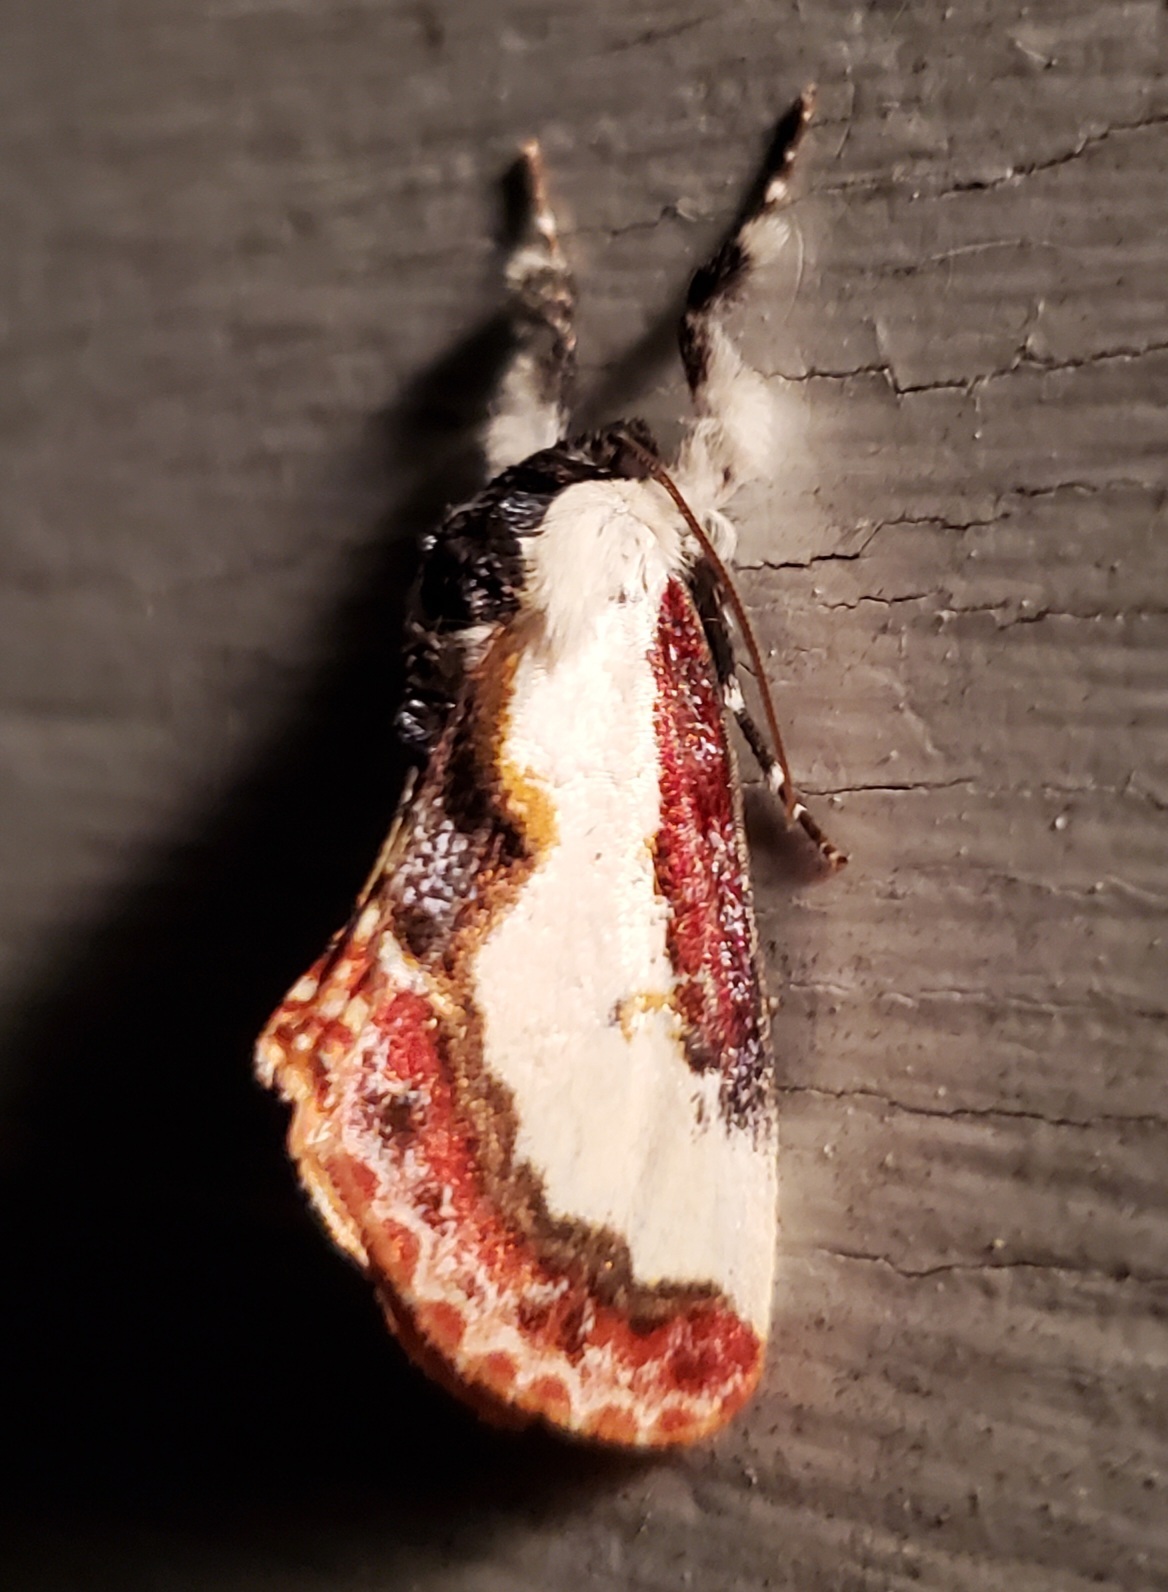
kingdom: Animalia
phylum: Arthropoda
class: Insecta
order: Lepidoptera
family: Noctuidae
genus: Eudryas
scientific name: Eudryas unio
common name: Pearly wood-nymph
